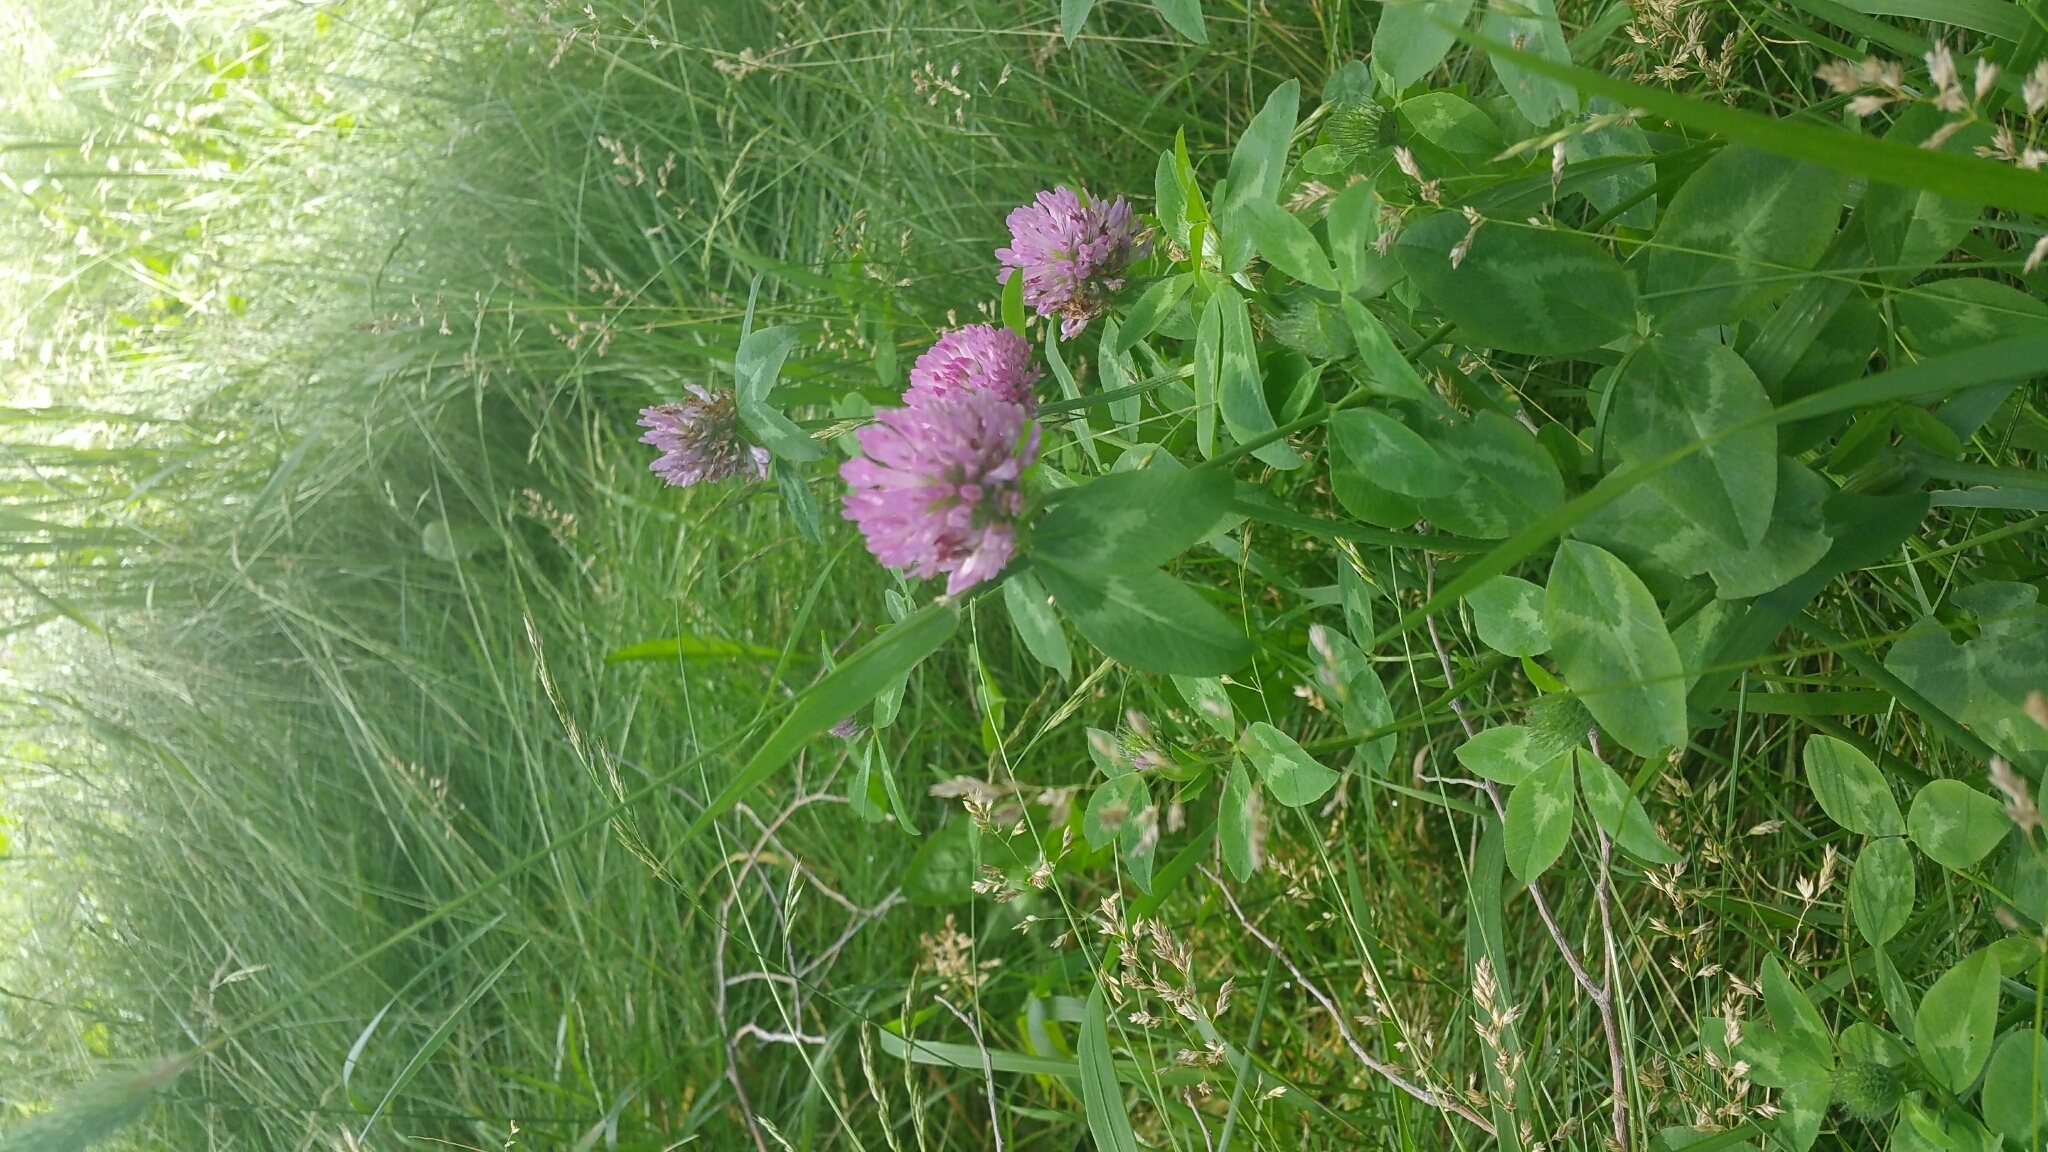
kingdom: Plantae
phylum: Tracheophyta
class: Magnoliopsida
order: Fabales
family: Fabaceae
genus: Trifolium
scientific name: Trifolium pratense
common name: Red clover
